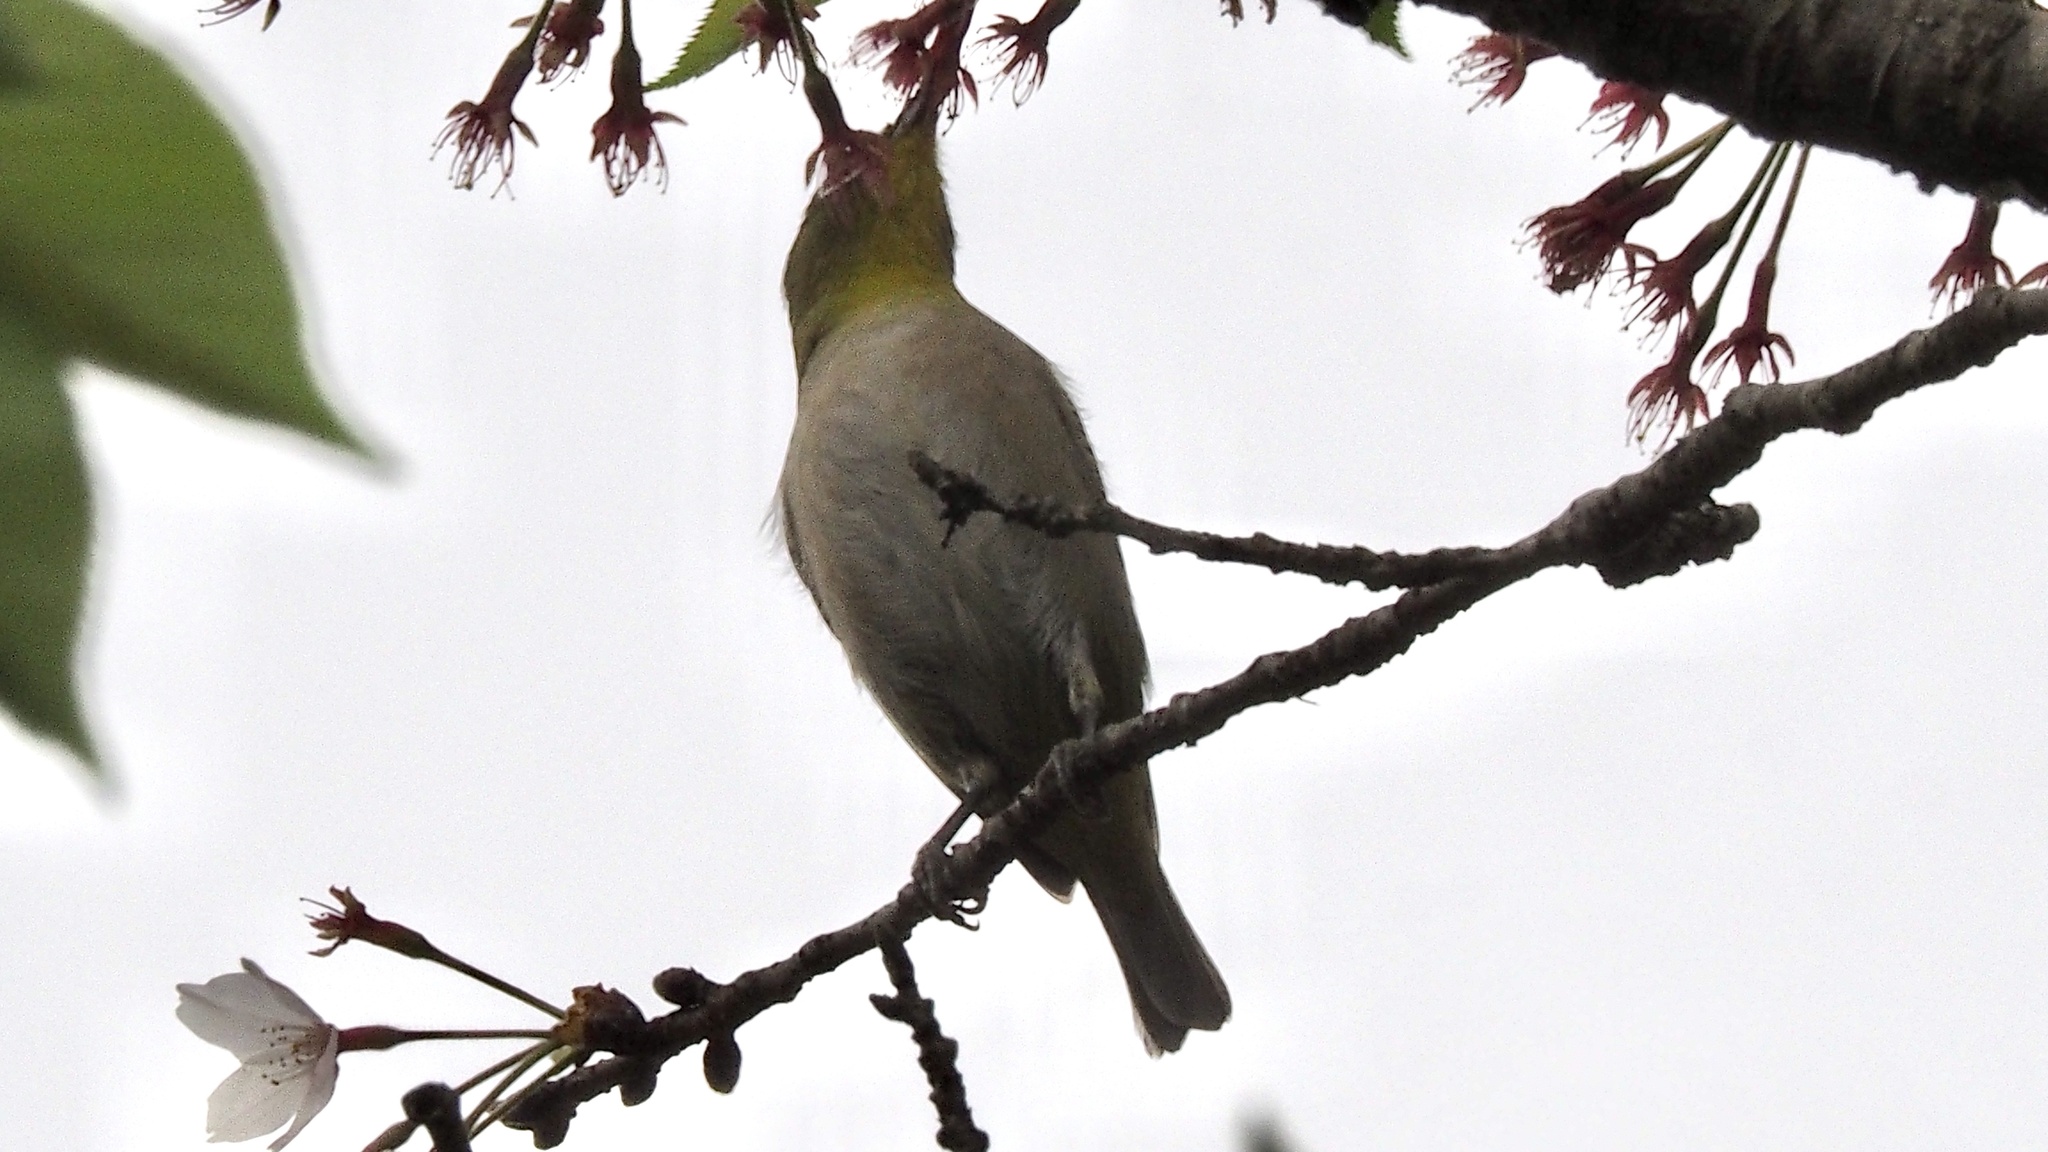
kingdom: Animalia
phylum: Chordata
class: Aves
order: Passeriformes
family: Zosteropidae
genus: Zosterops
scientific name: Zosterops japonicus
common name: Japanese white-eye
